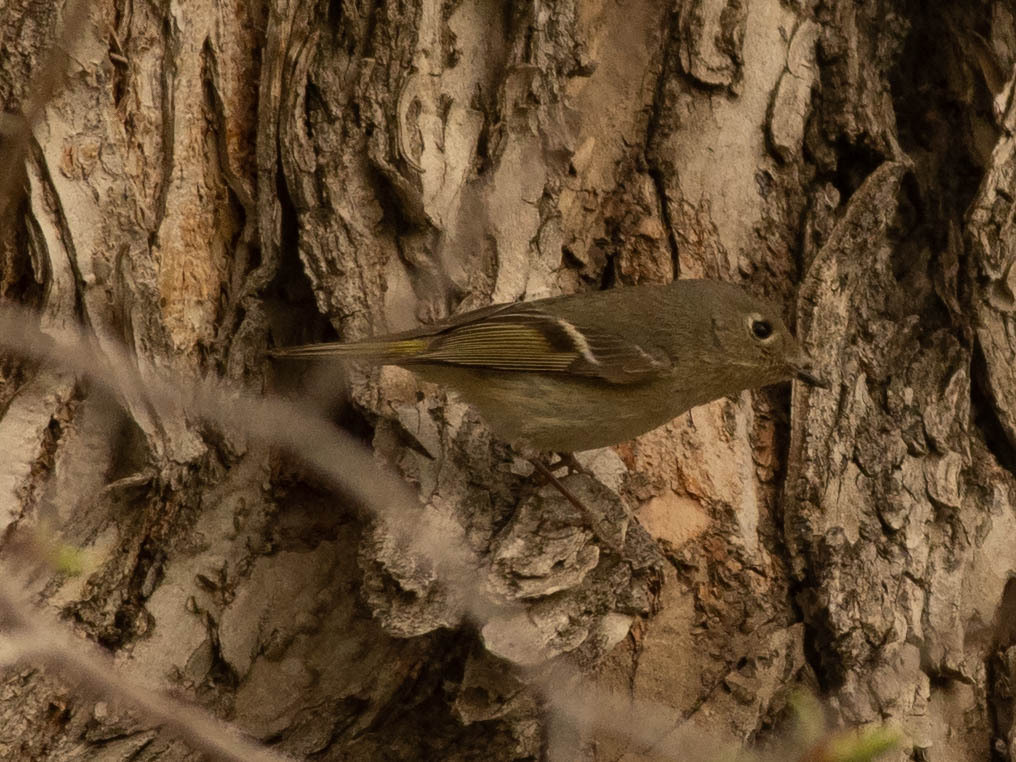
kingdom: Animalia
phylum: Chordata
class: Aves
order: Passeriformes
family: Regulidae
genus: Regulus
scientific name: Regulus calendula
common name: Ruby-crowned kinglet
